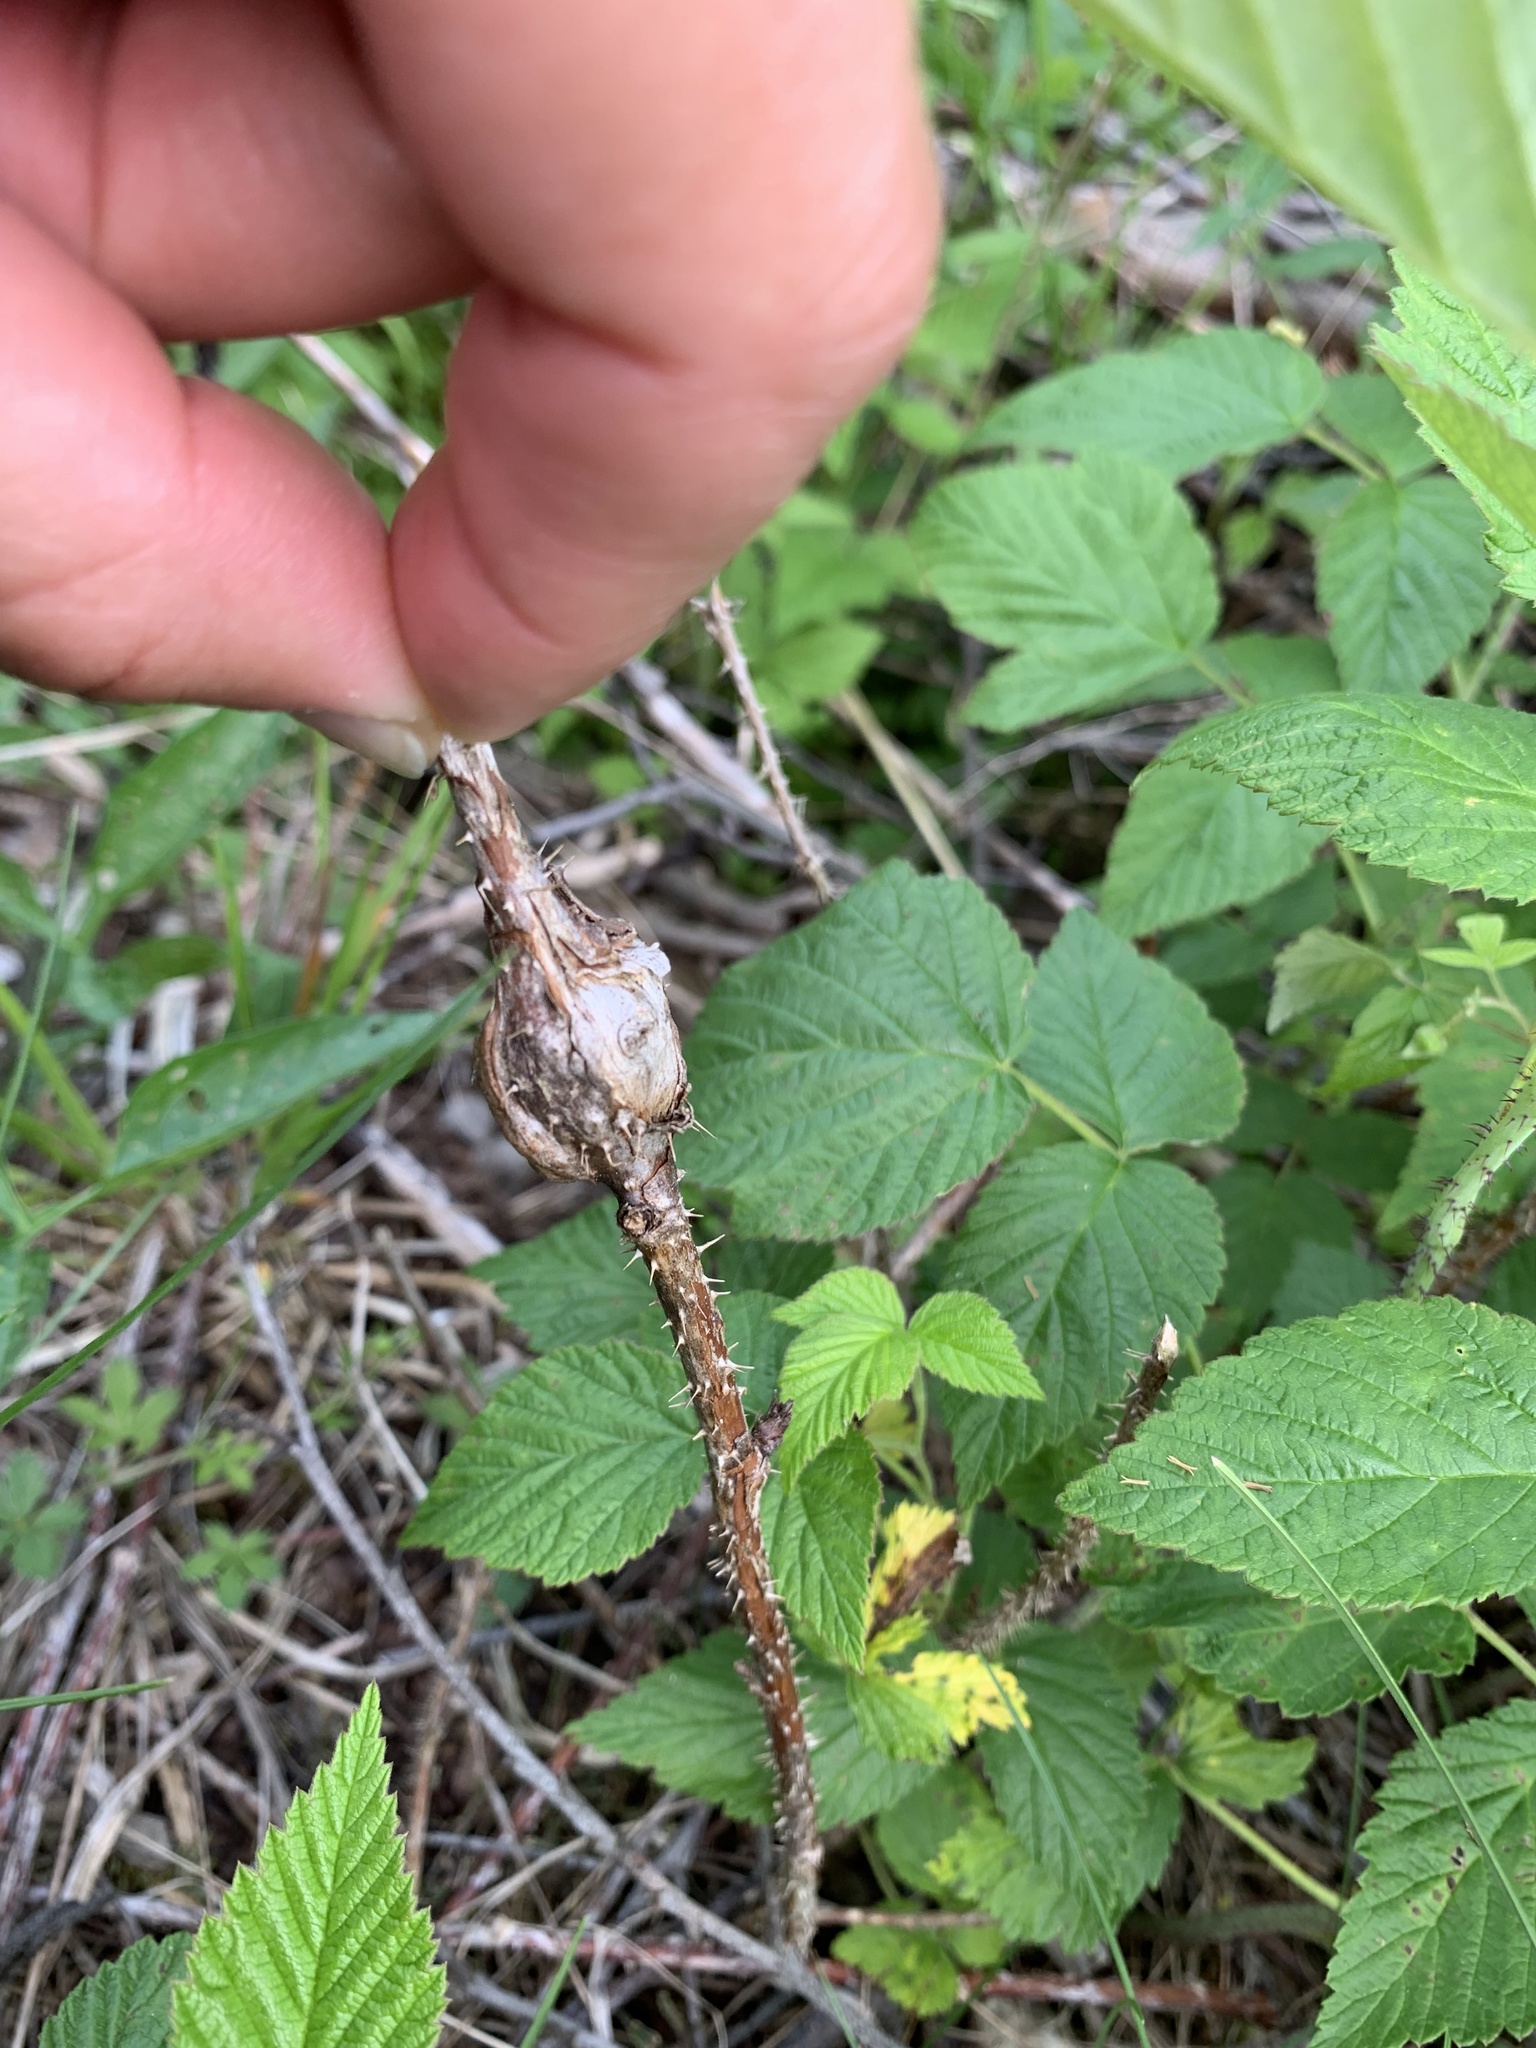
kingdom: Animalia
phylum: Arthropoda
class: Insecta
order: Diptera
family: Cecidomyiidae
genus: Lasioptera
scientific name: Lasioptera rubi
